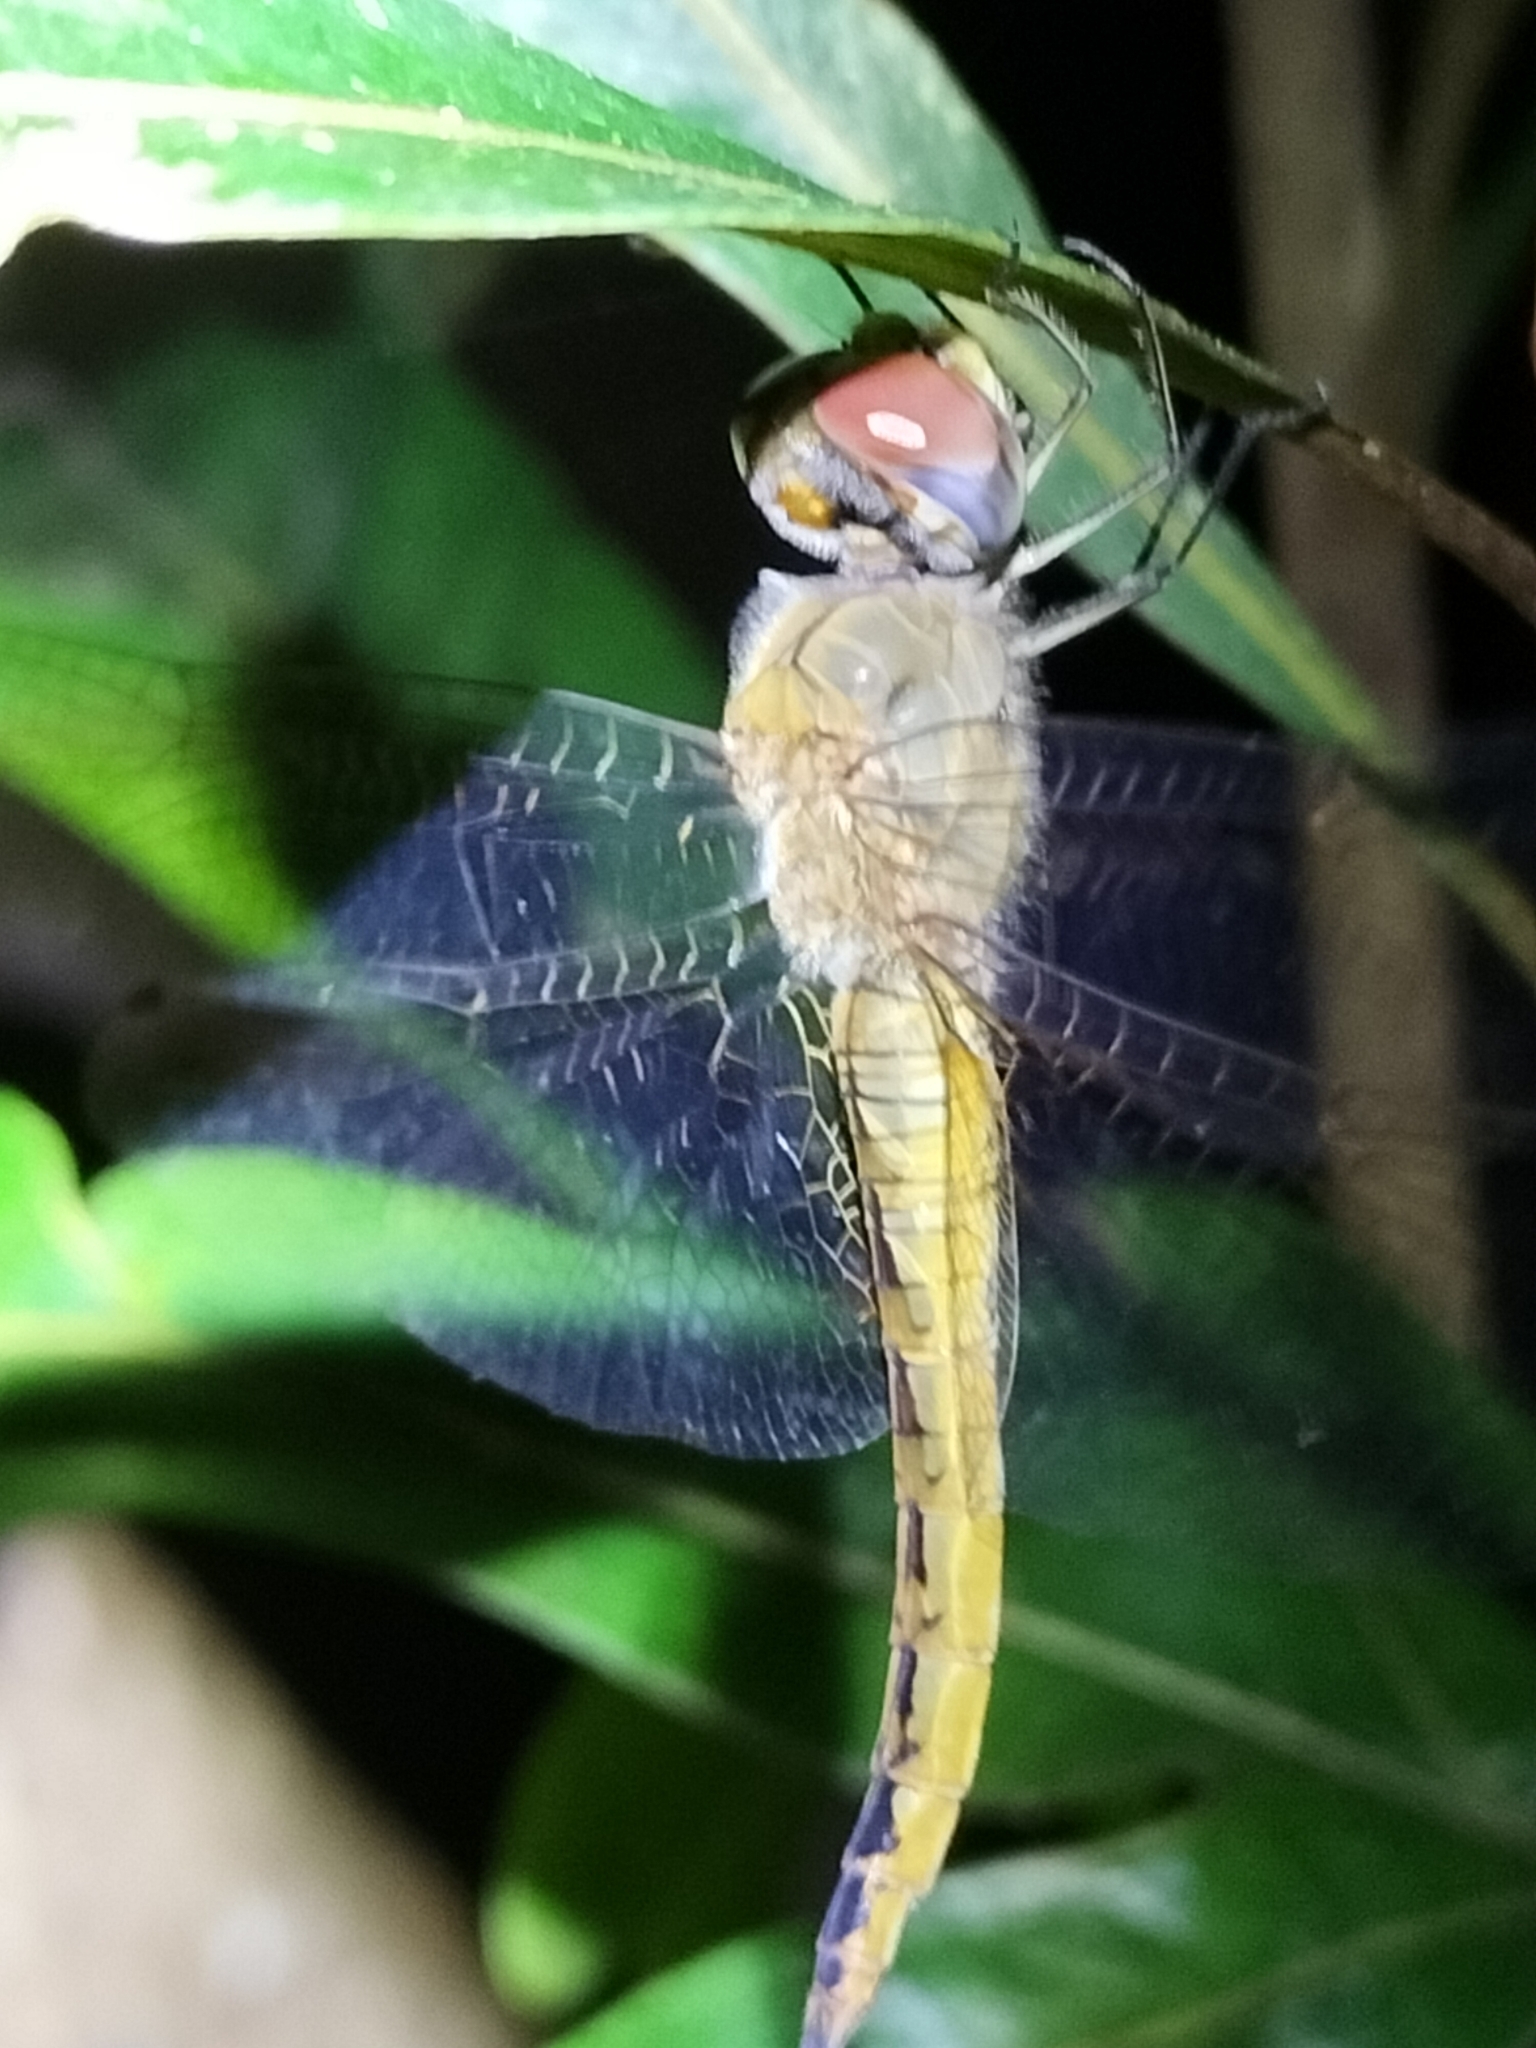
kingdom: Animalia
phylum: Arthropoda
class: Insecta
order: Odonata
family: Libellulidae
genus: Pantala
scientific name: Pantala flavescens
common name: Wandering glider
